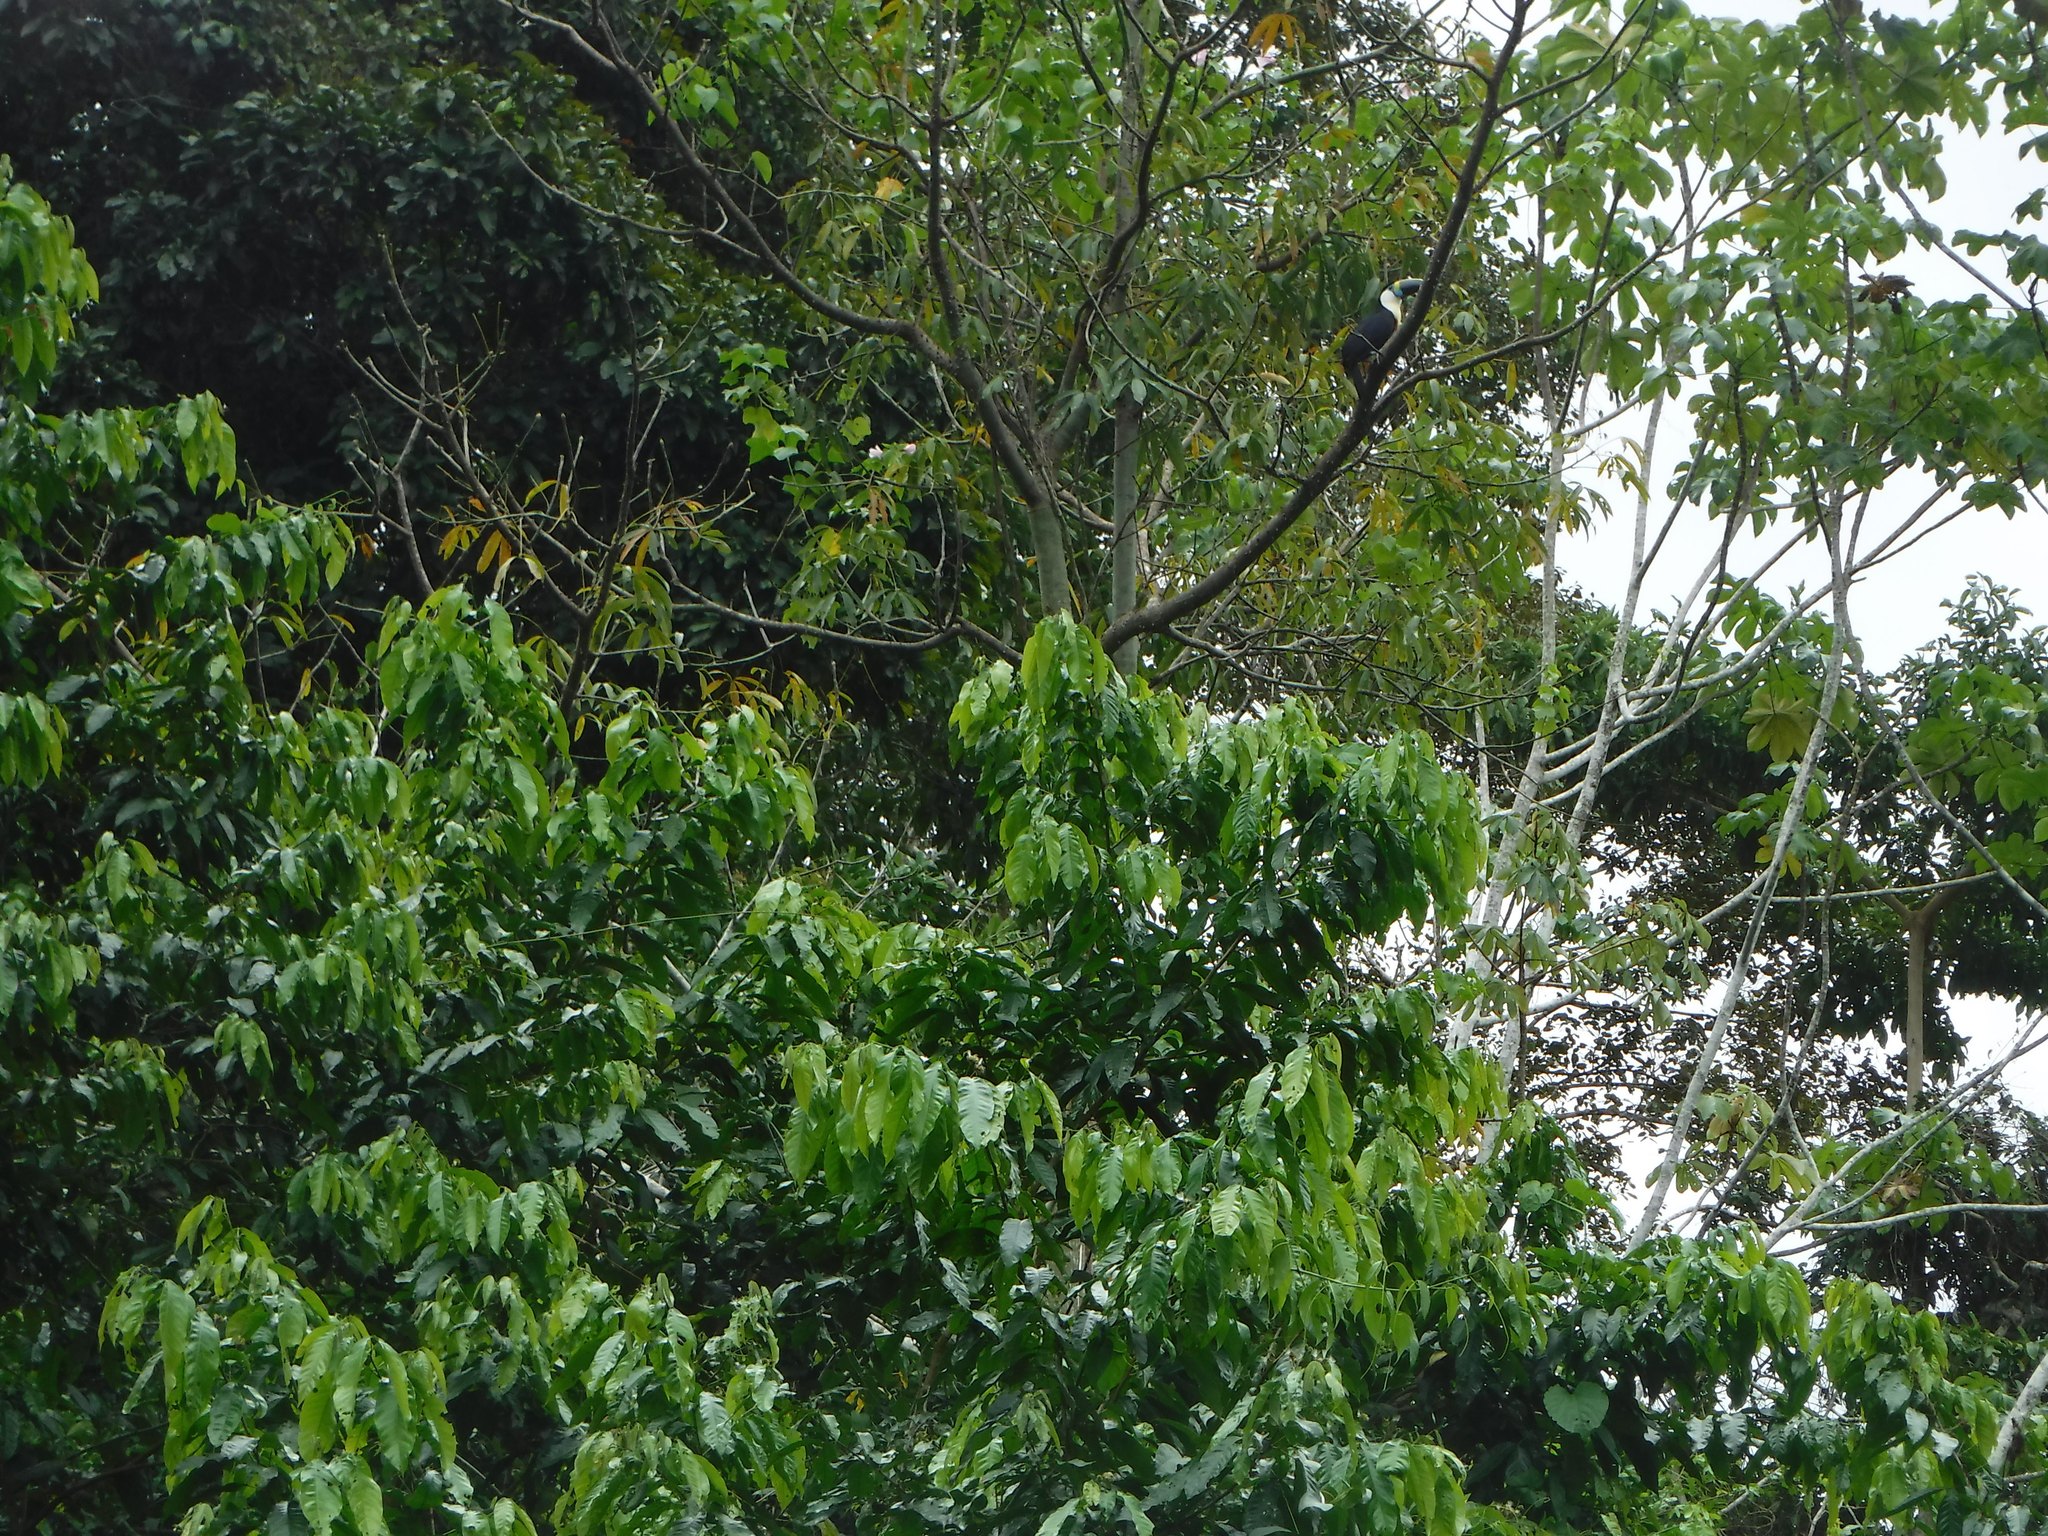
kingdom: Animalia
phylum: Chordata
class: Aves
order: Piciformes
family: Ramphastidae
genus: Ramphastos
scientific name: Ramphastos tucanus
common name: White-throated toucan
